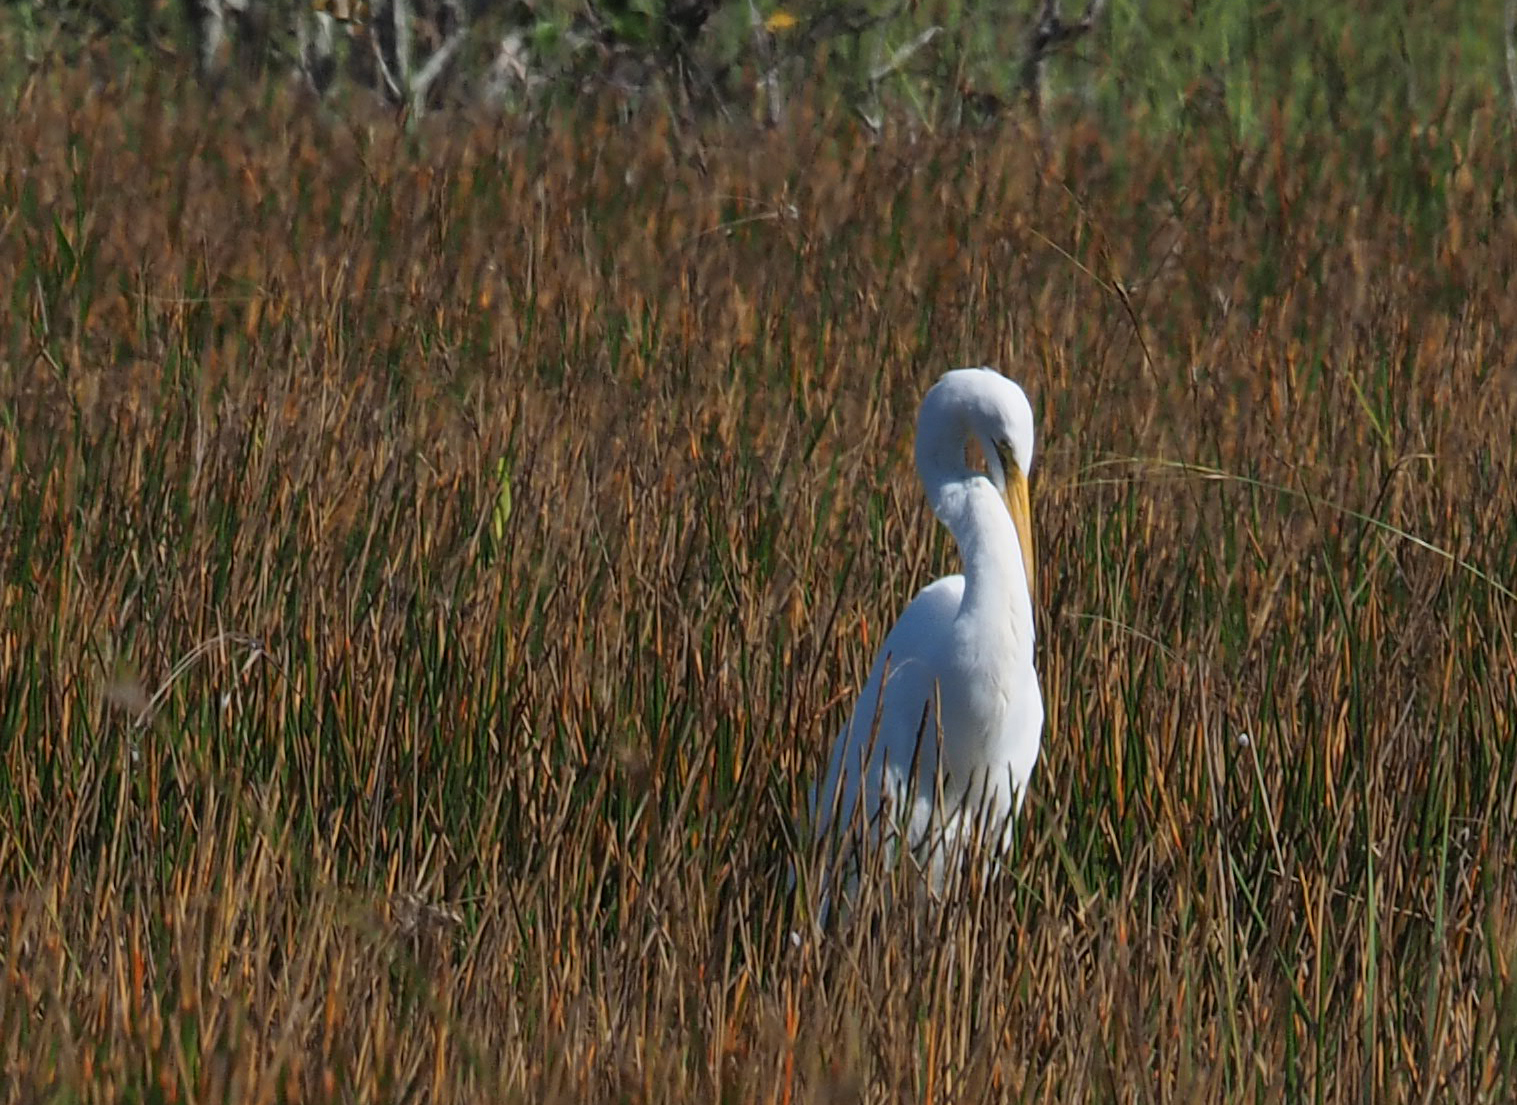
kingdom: Animalia
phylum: Chordata
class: Aves
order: Pelecaniformes
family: Ardeidae
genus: Ardea
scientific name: Ardea alba
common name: Great egret
